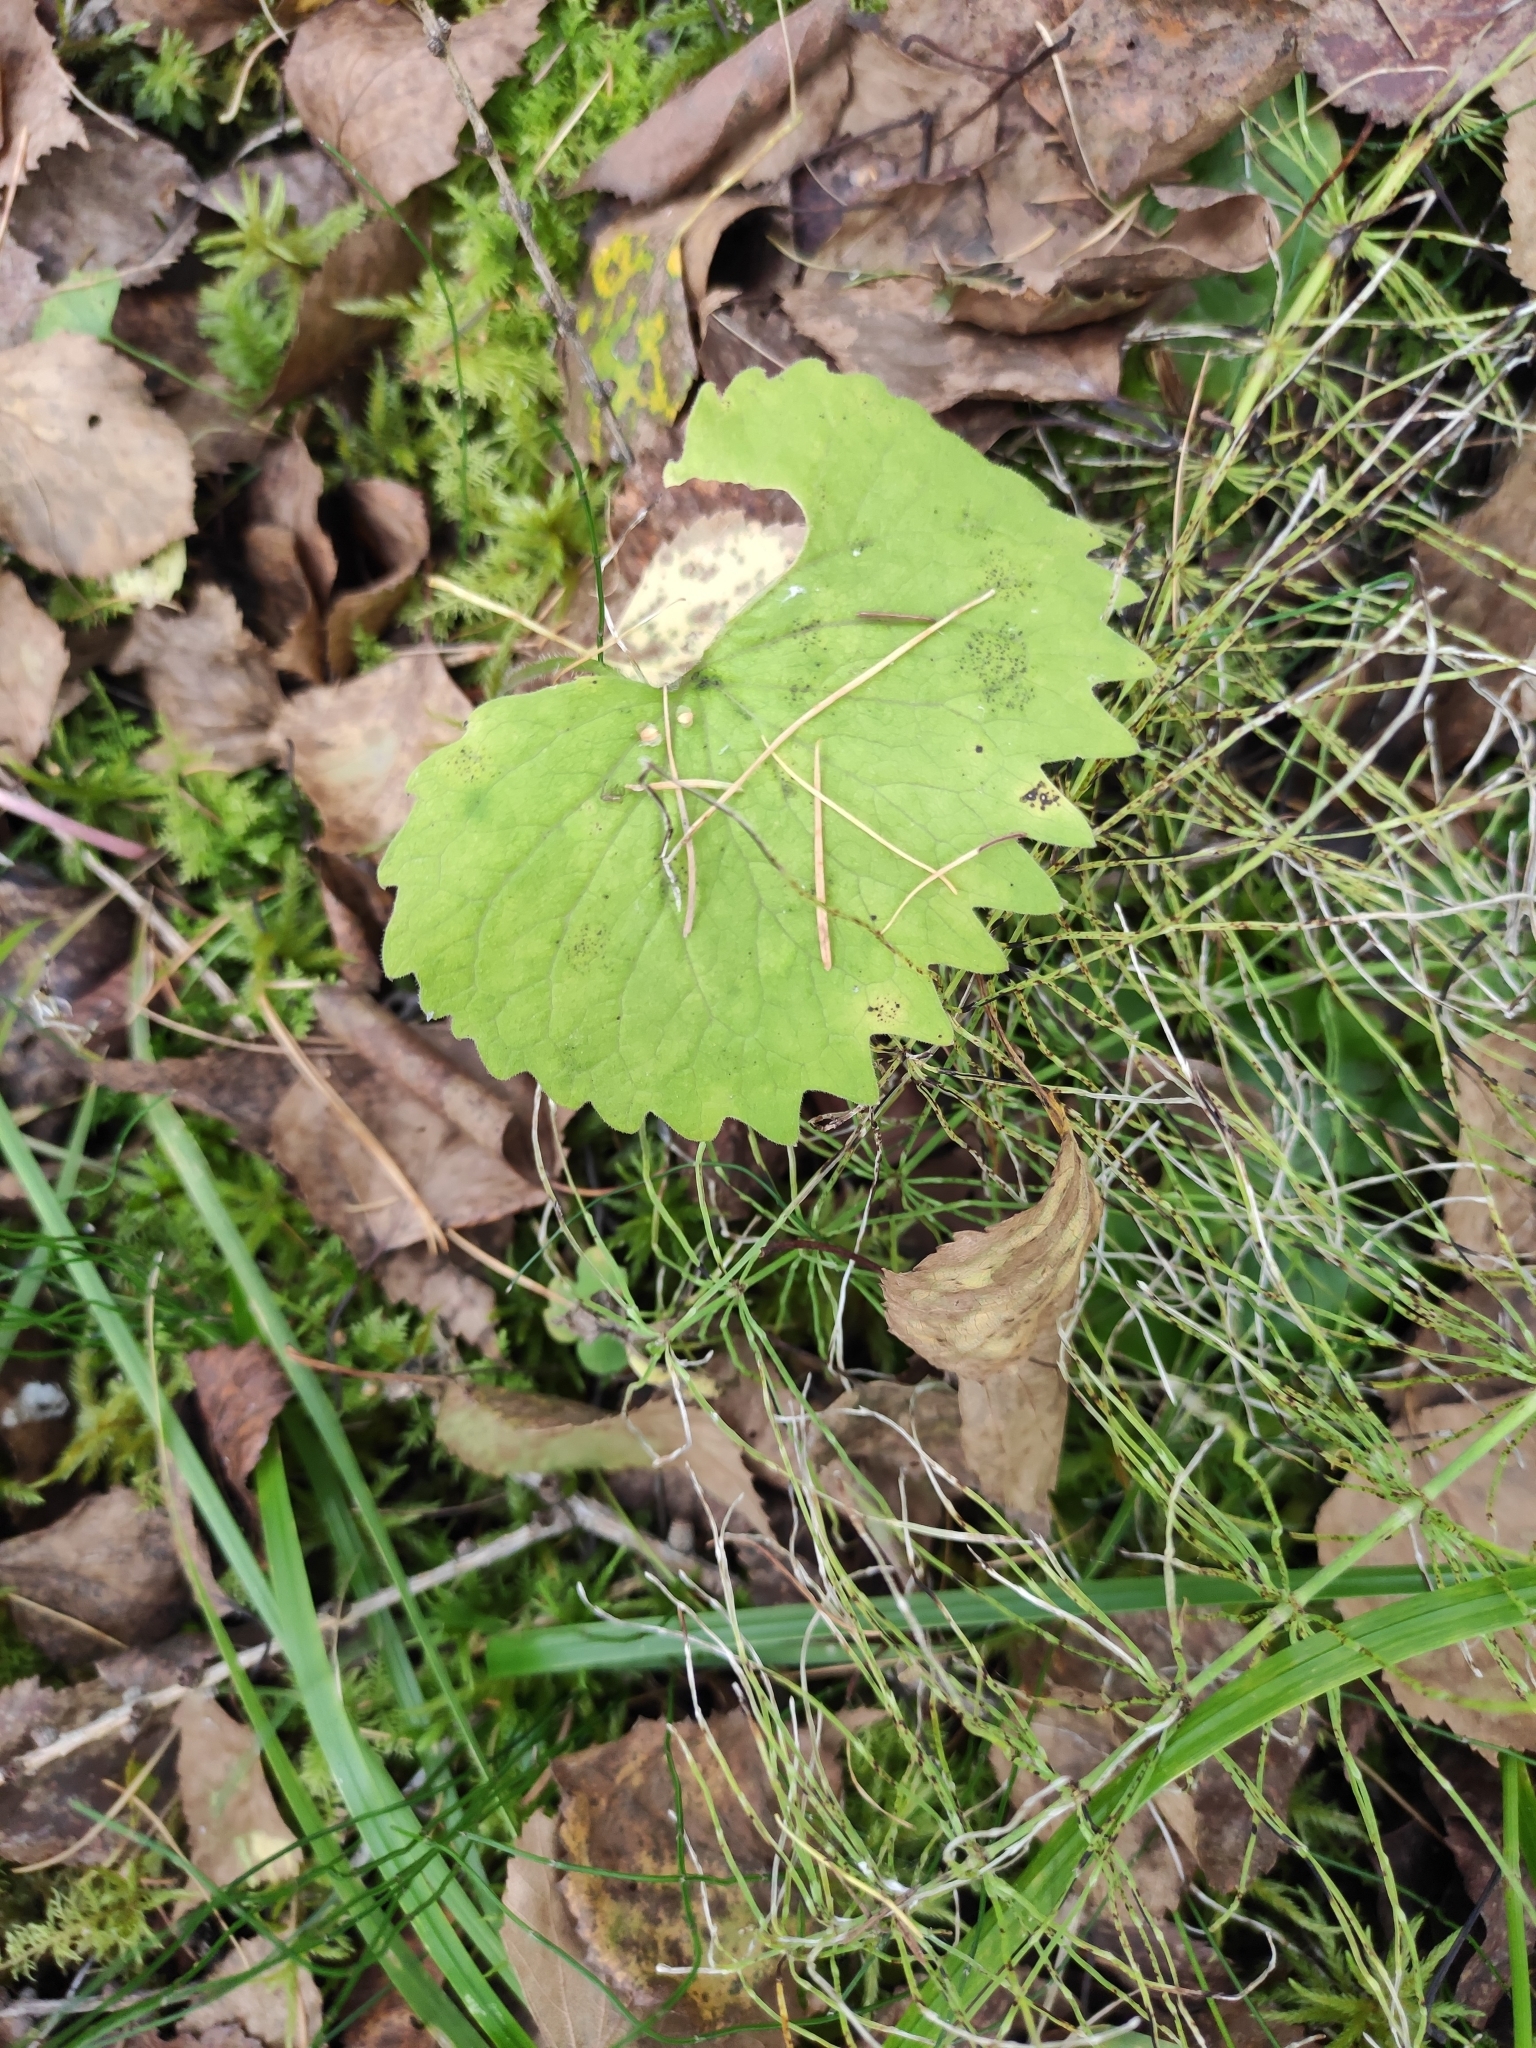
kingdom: Plantae
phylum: Tracheophyta
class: Magnoliopsida
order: Malpighiales
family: Violaceae
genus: Viola
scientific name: Viola uniflora
